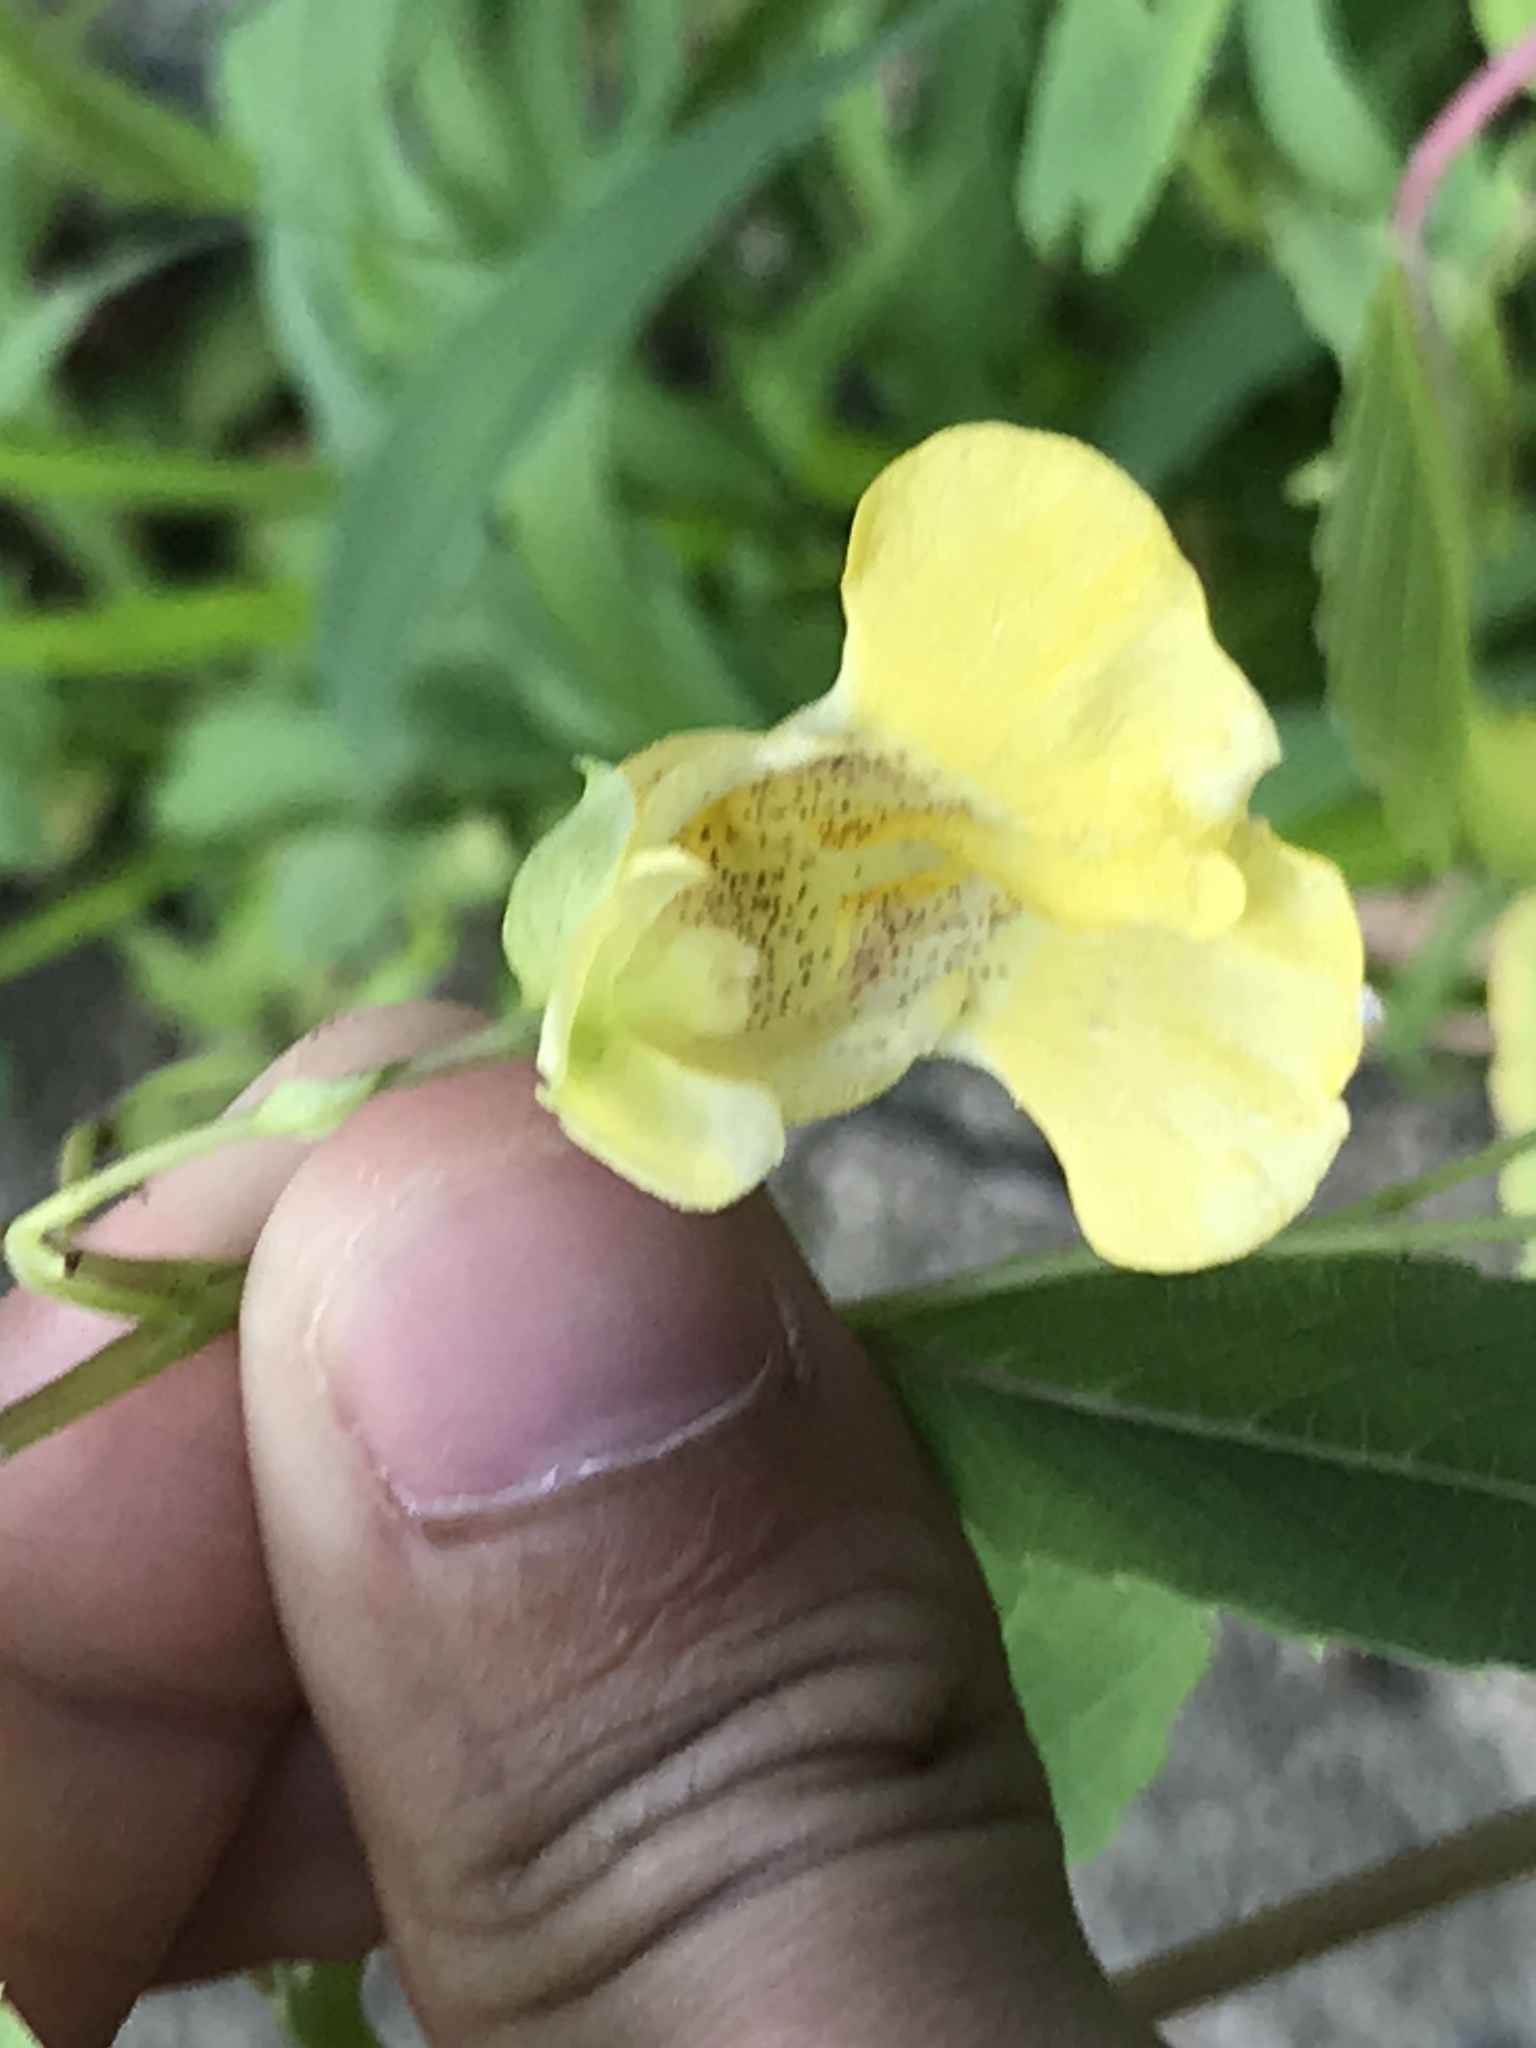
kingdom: Plantae
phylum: Tracheophyta
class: Magnoliopsida
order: Ericales
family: Balsaminaceae
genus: Impatiens
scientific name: Impatiens pallida
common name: Pale snapweed
